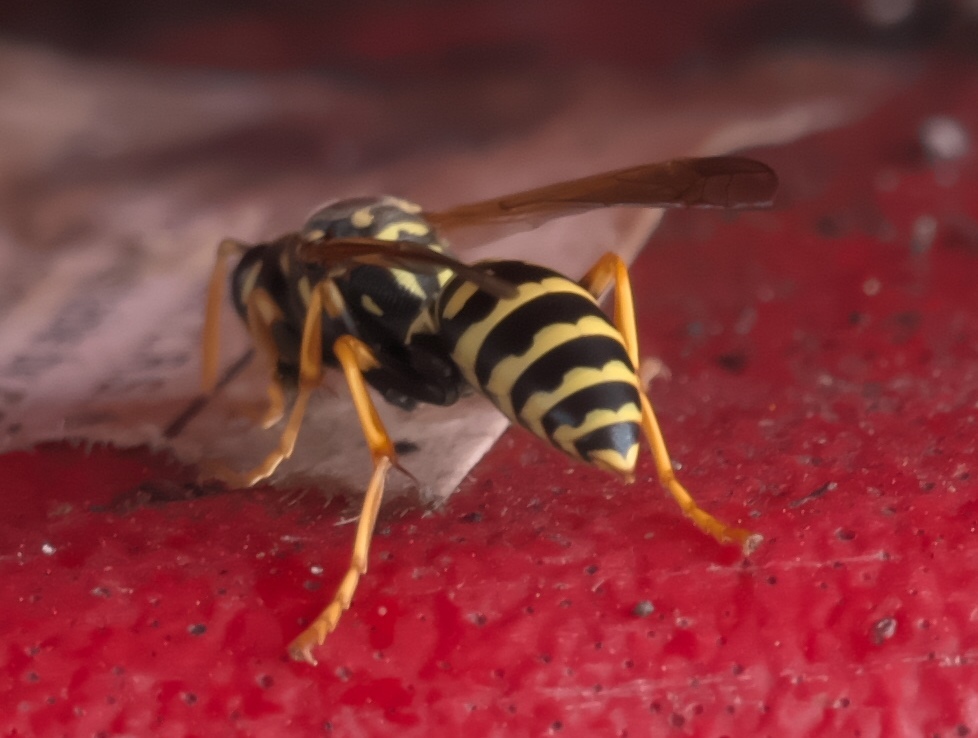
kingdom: Animalia
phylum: Arthropoda
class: Insecta
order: Hymenoptera
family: Eumenidae
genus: Polistes
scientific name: Polistes dominula
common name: Paper wasp
